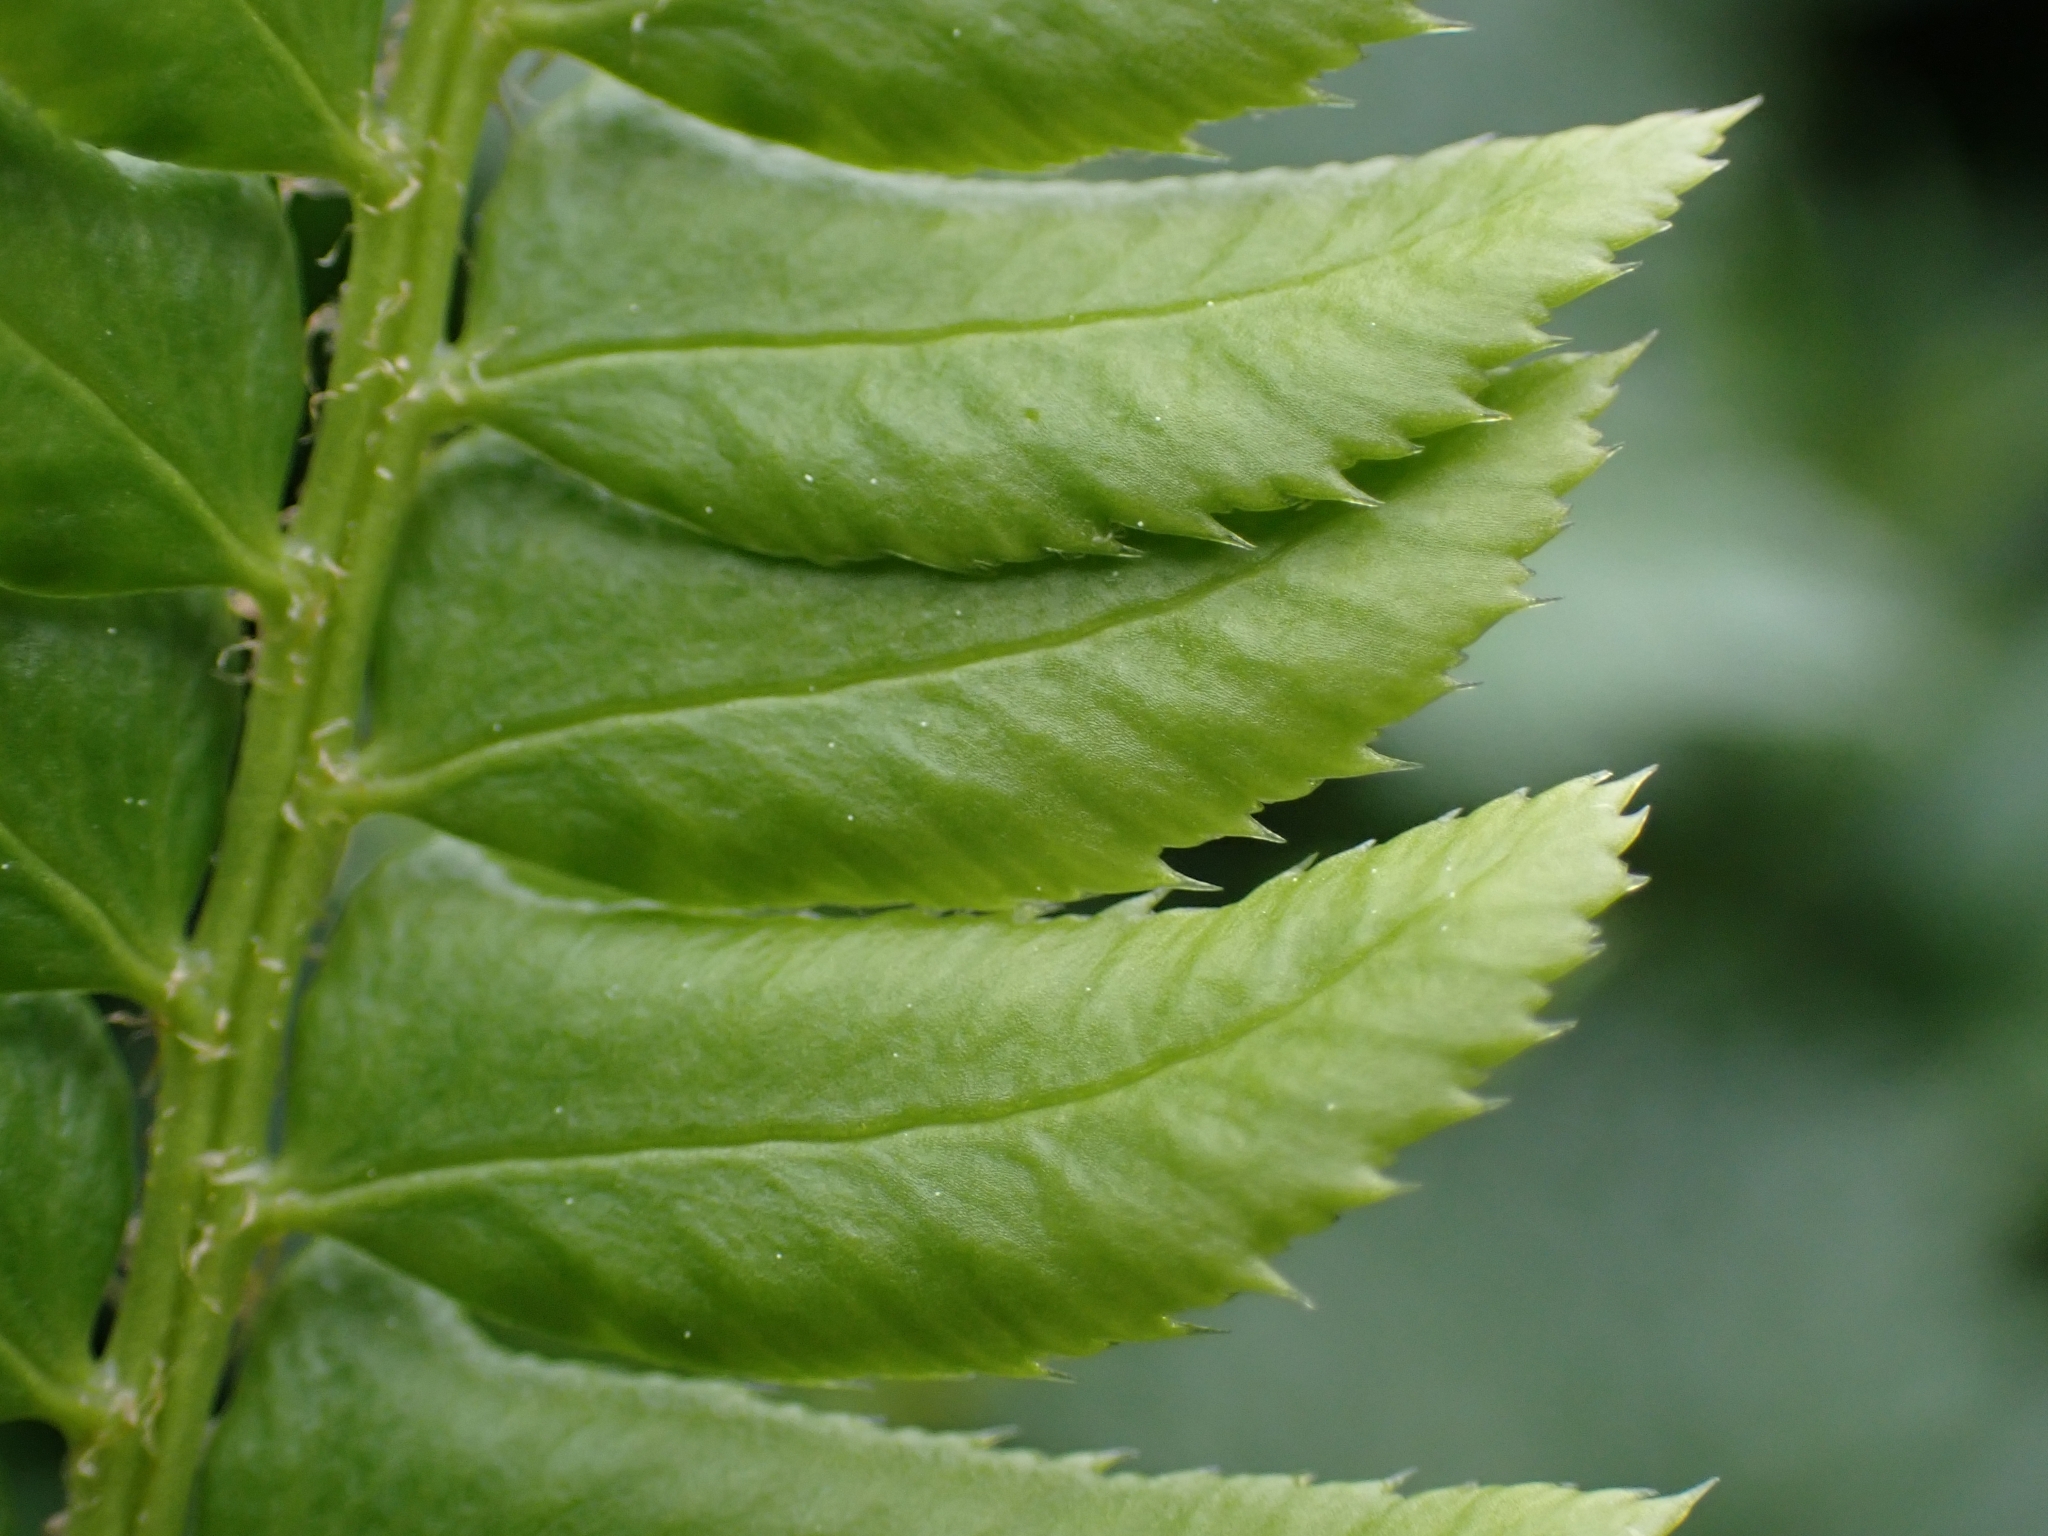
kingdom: Plantae
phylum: Tracheophyta
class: Polypodiopsida
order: Polypodiales
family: Dryopteridaceae
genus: Polystichum
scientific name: Polystichum lonchitis
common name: Holly fern
